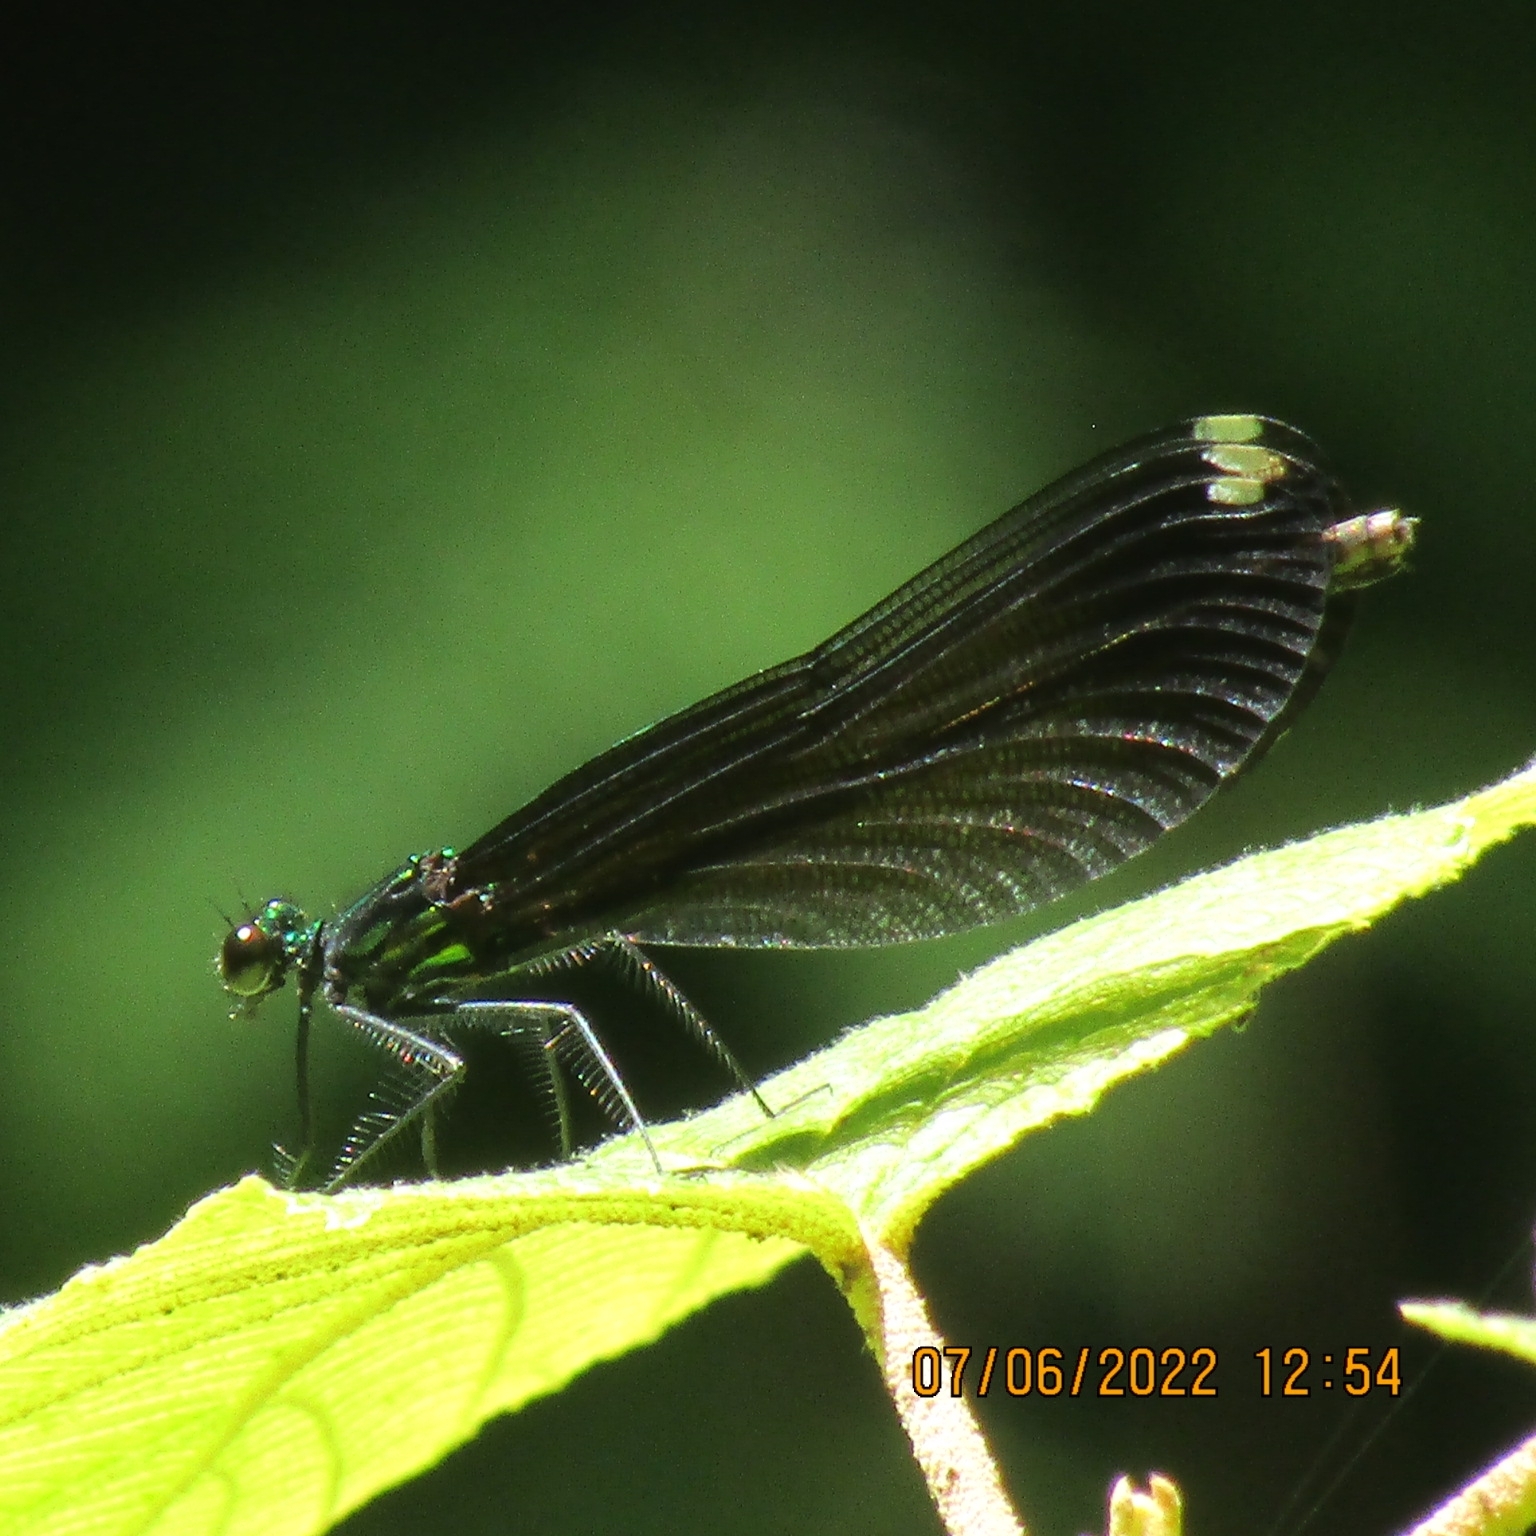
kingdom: Animalia
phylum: Arthropoda
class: Insecta
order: Odonata
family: Calopterygidae
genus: Calopteryx
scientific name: Calopteryx maculata
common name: Ebony jewelwing
